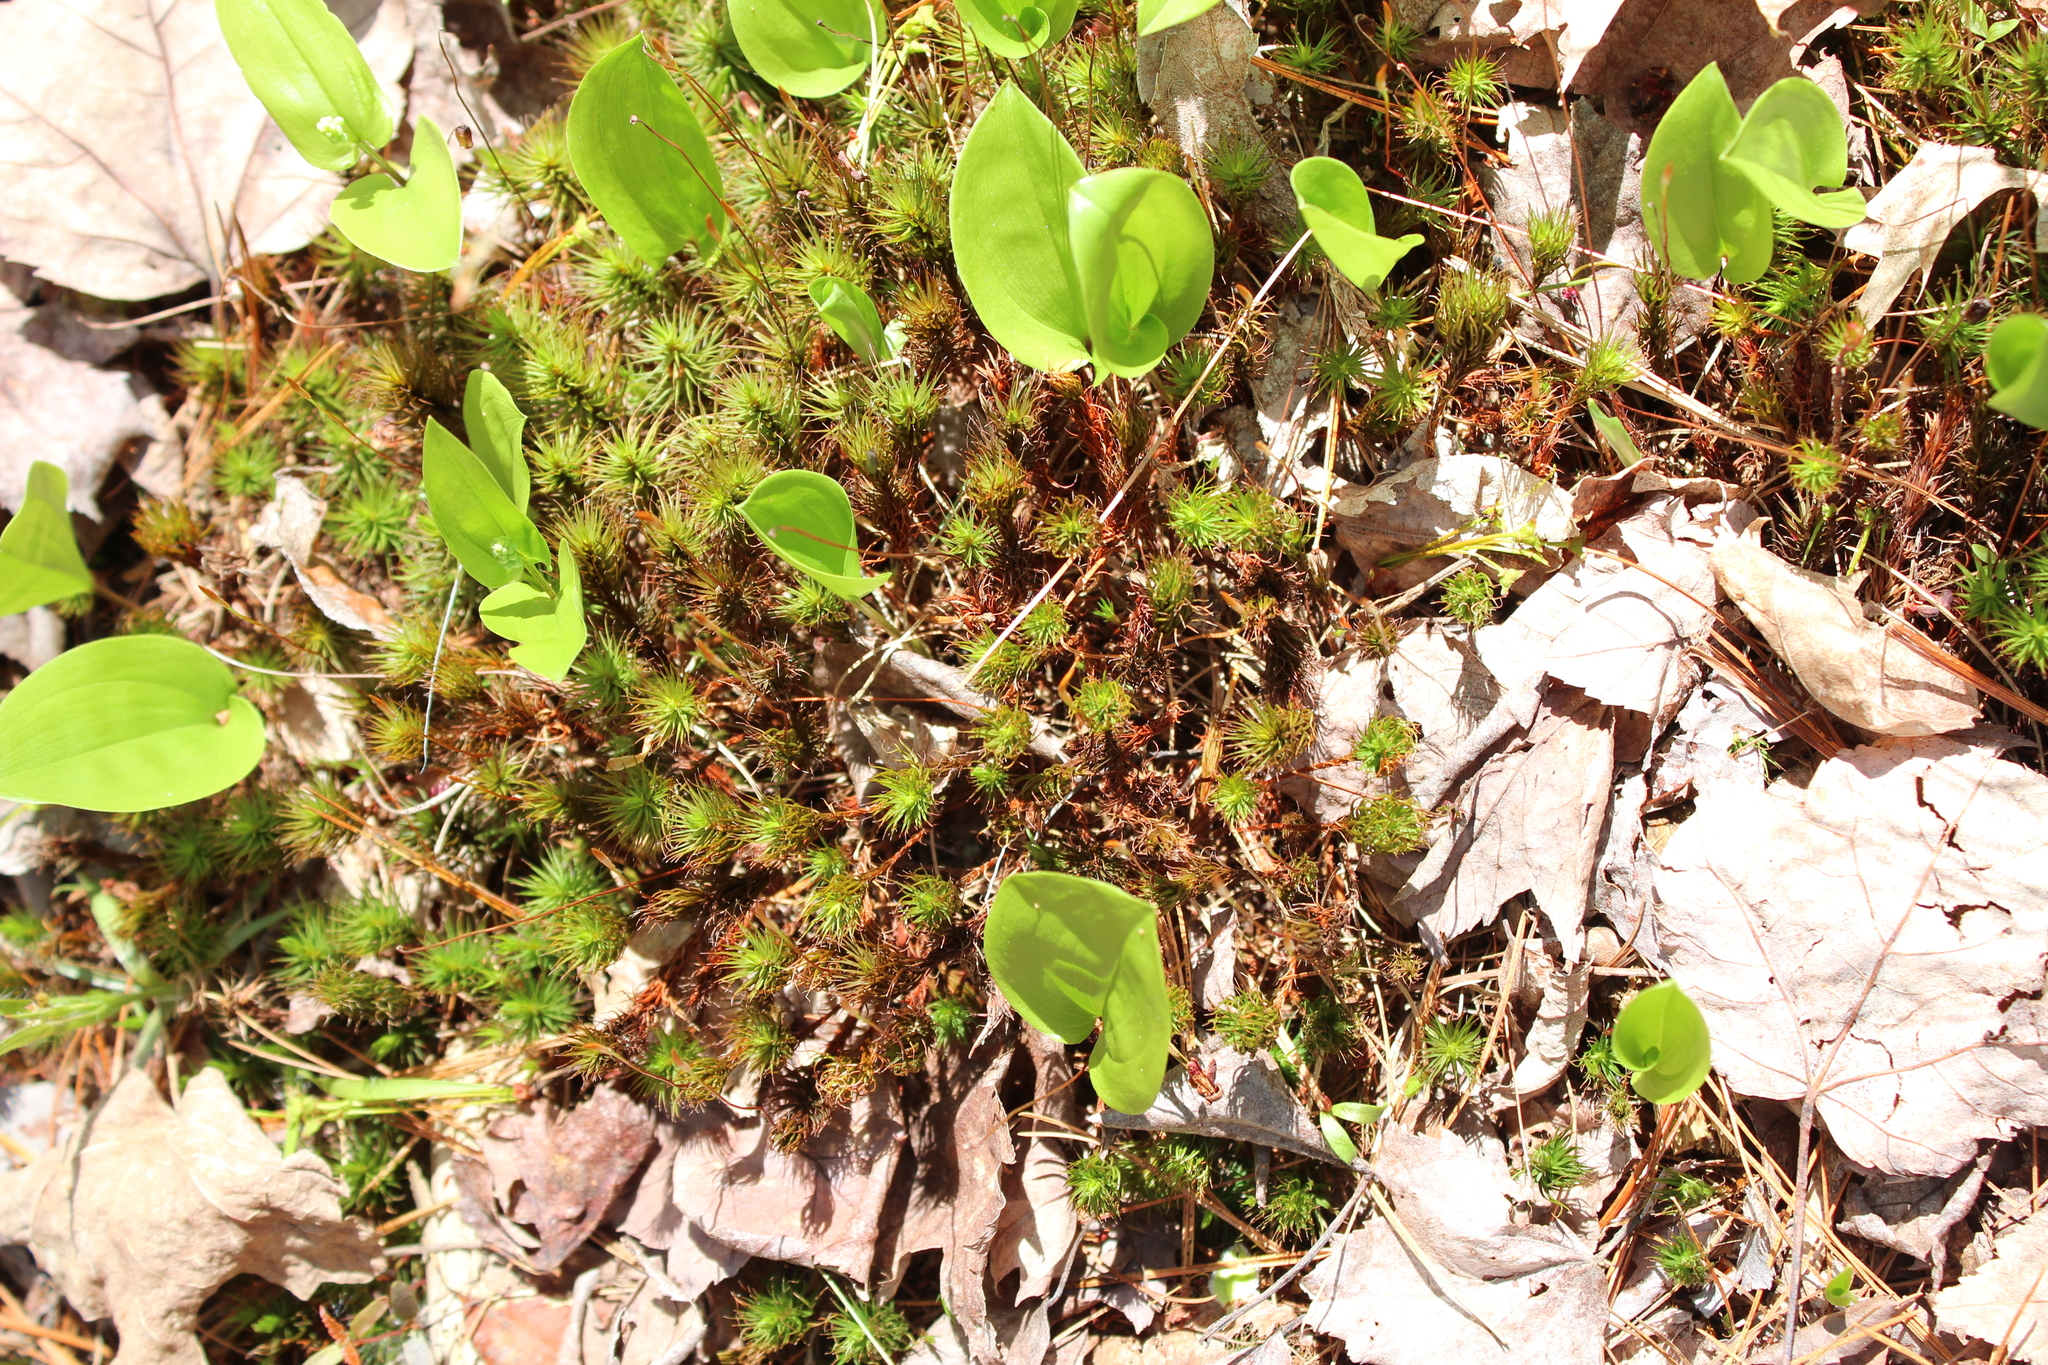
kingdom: Plantae
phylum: Tracheophyta
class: Liliopsida
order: Asparagales
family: Asparagaceae
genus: Maianthemum
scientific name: Maianthemum canadense
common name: False lily-of-the-valley
